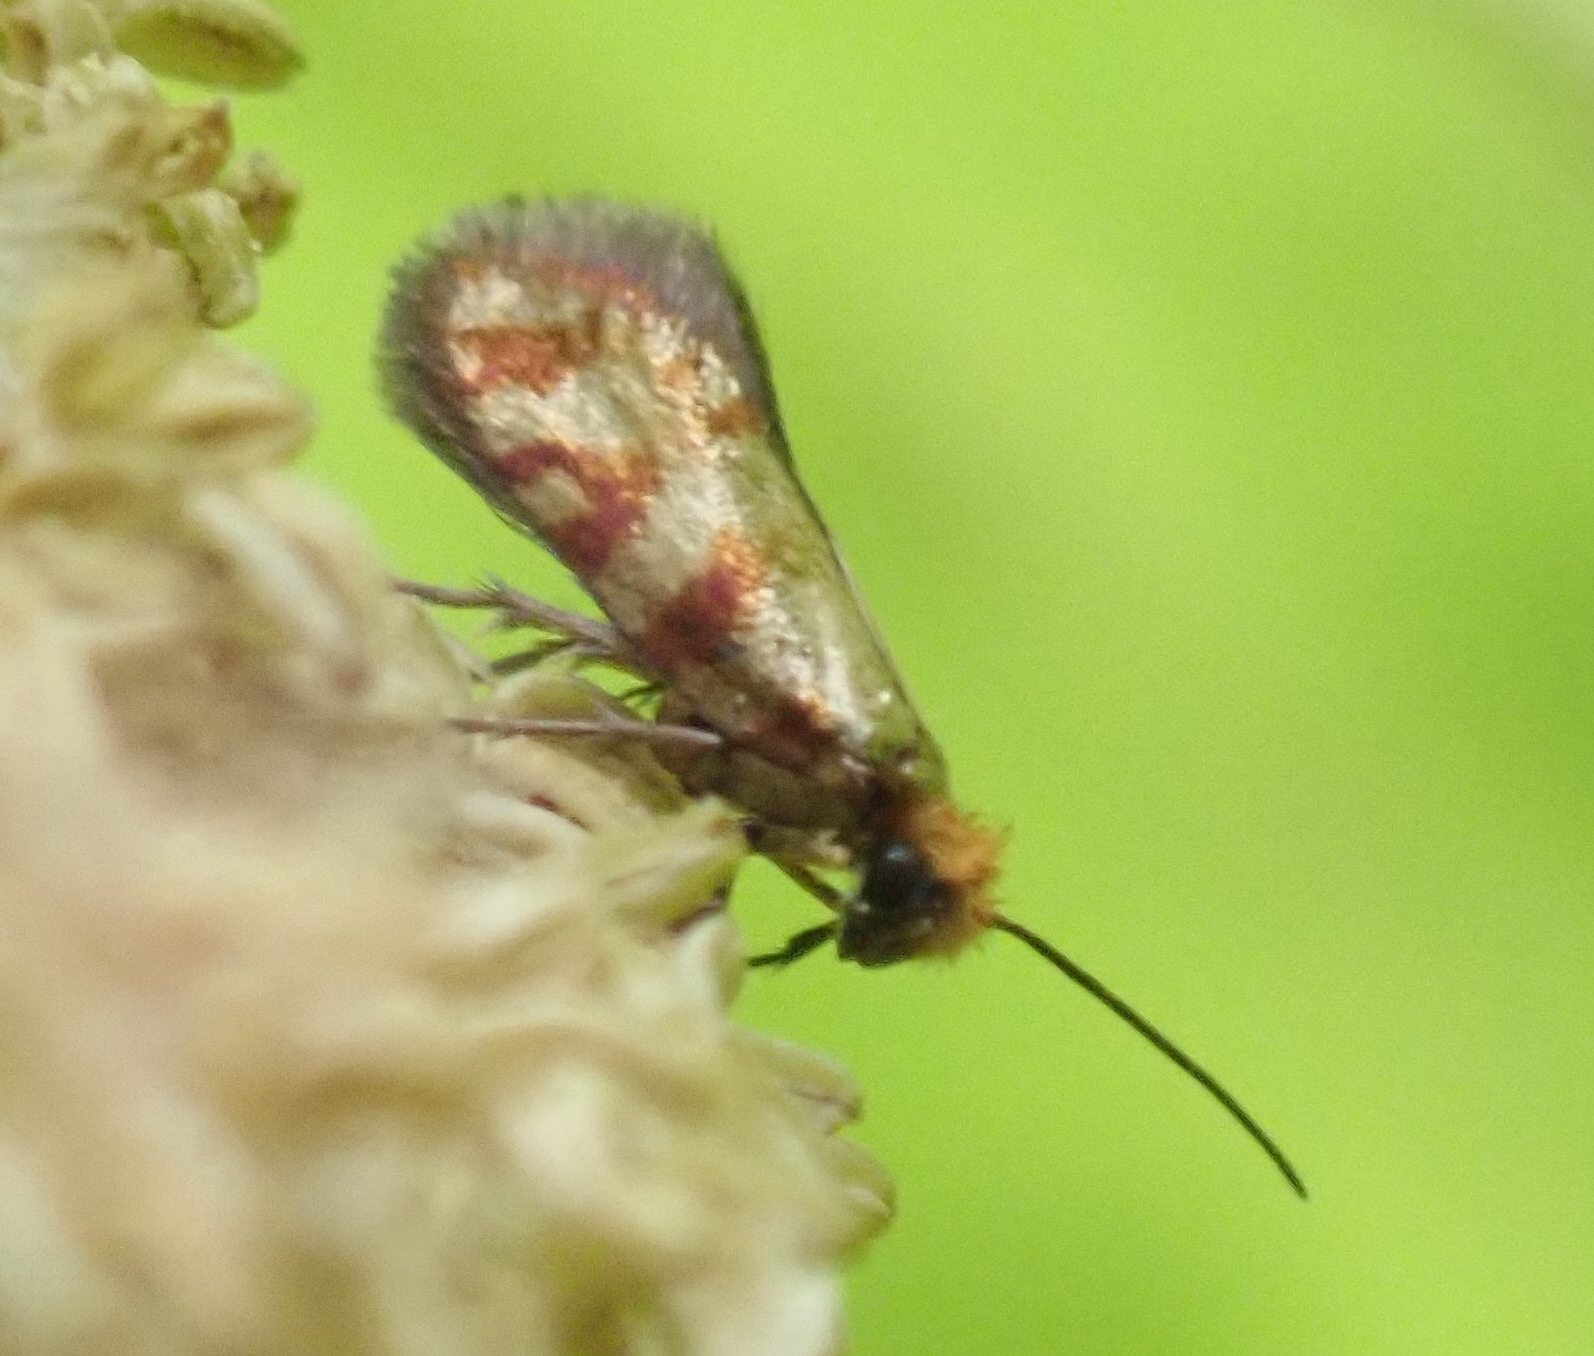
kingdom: Animalia
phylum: Arthropoda
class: Insecta
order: Lepidoptera
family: Micropterigidae
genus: Micropterix
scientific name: Micropterix tunbergella
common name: Red-barred gold
